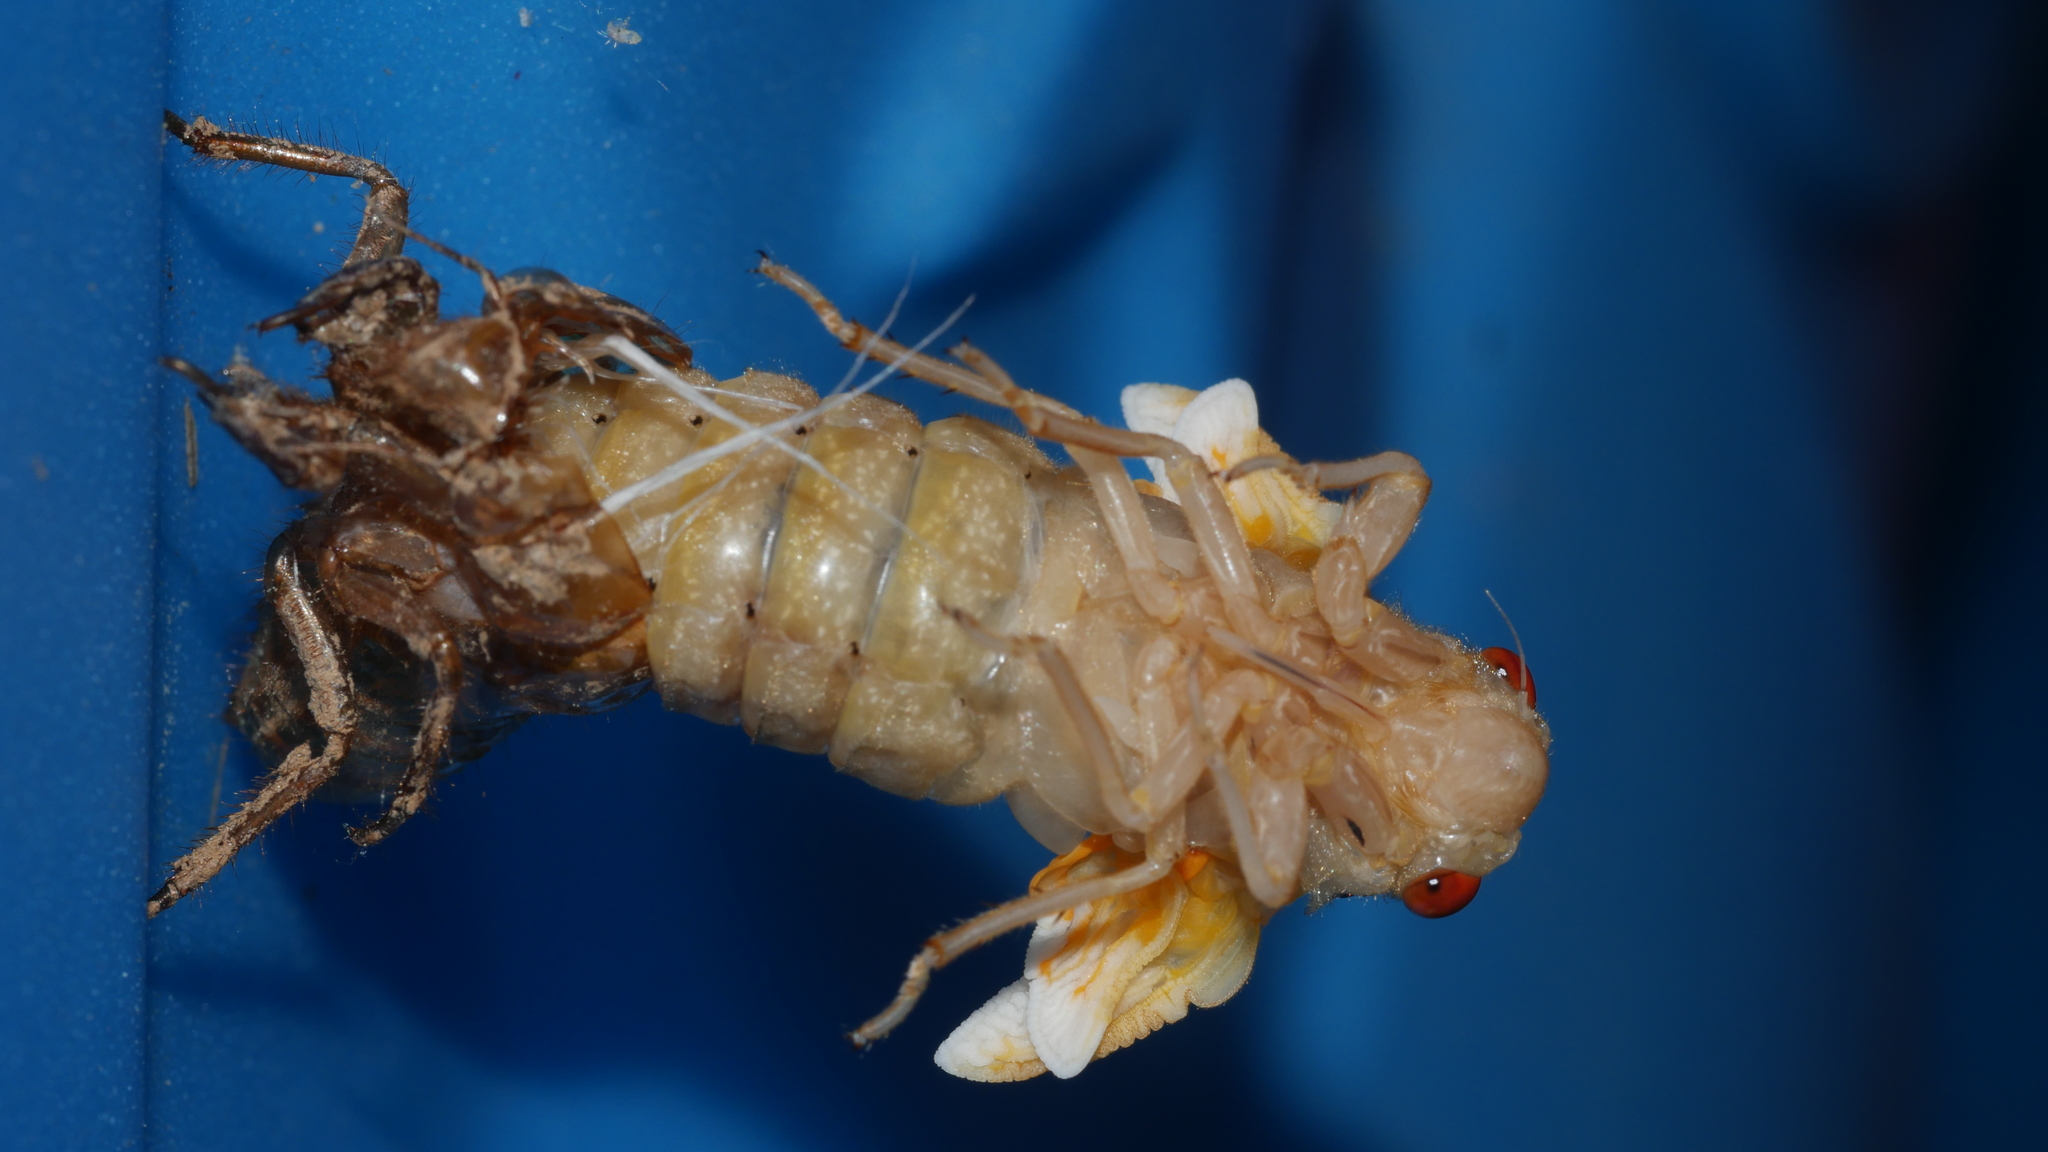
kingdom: Animalia
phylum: Arthropoda
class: Insecta
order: Hemiptera
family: Cicadidae
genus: Magicicada
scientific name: Magicicada
